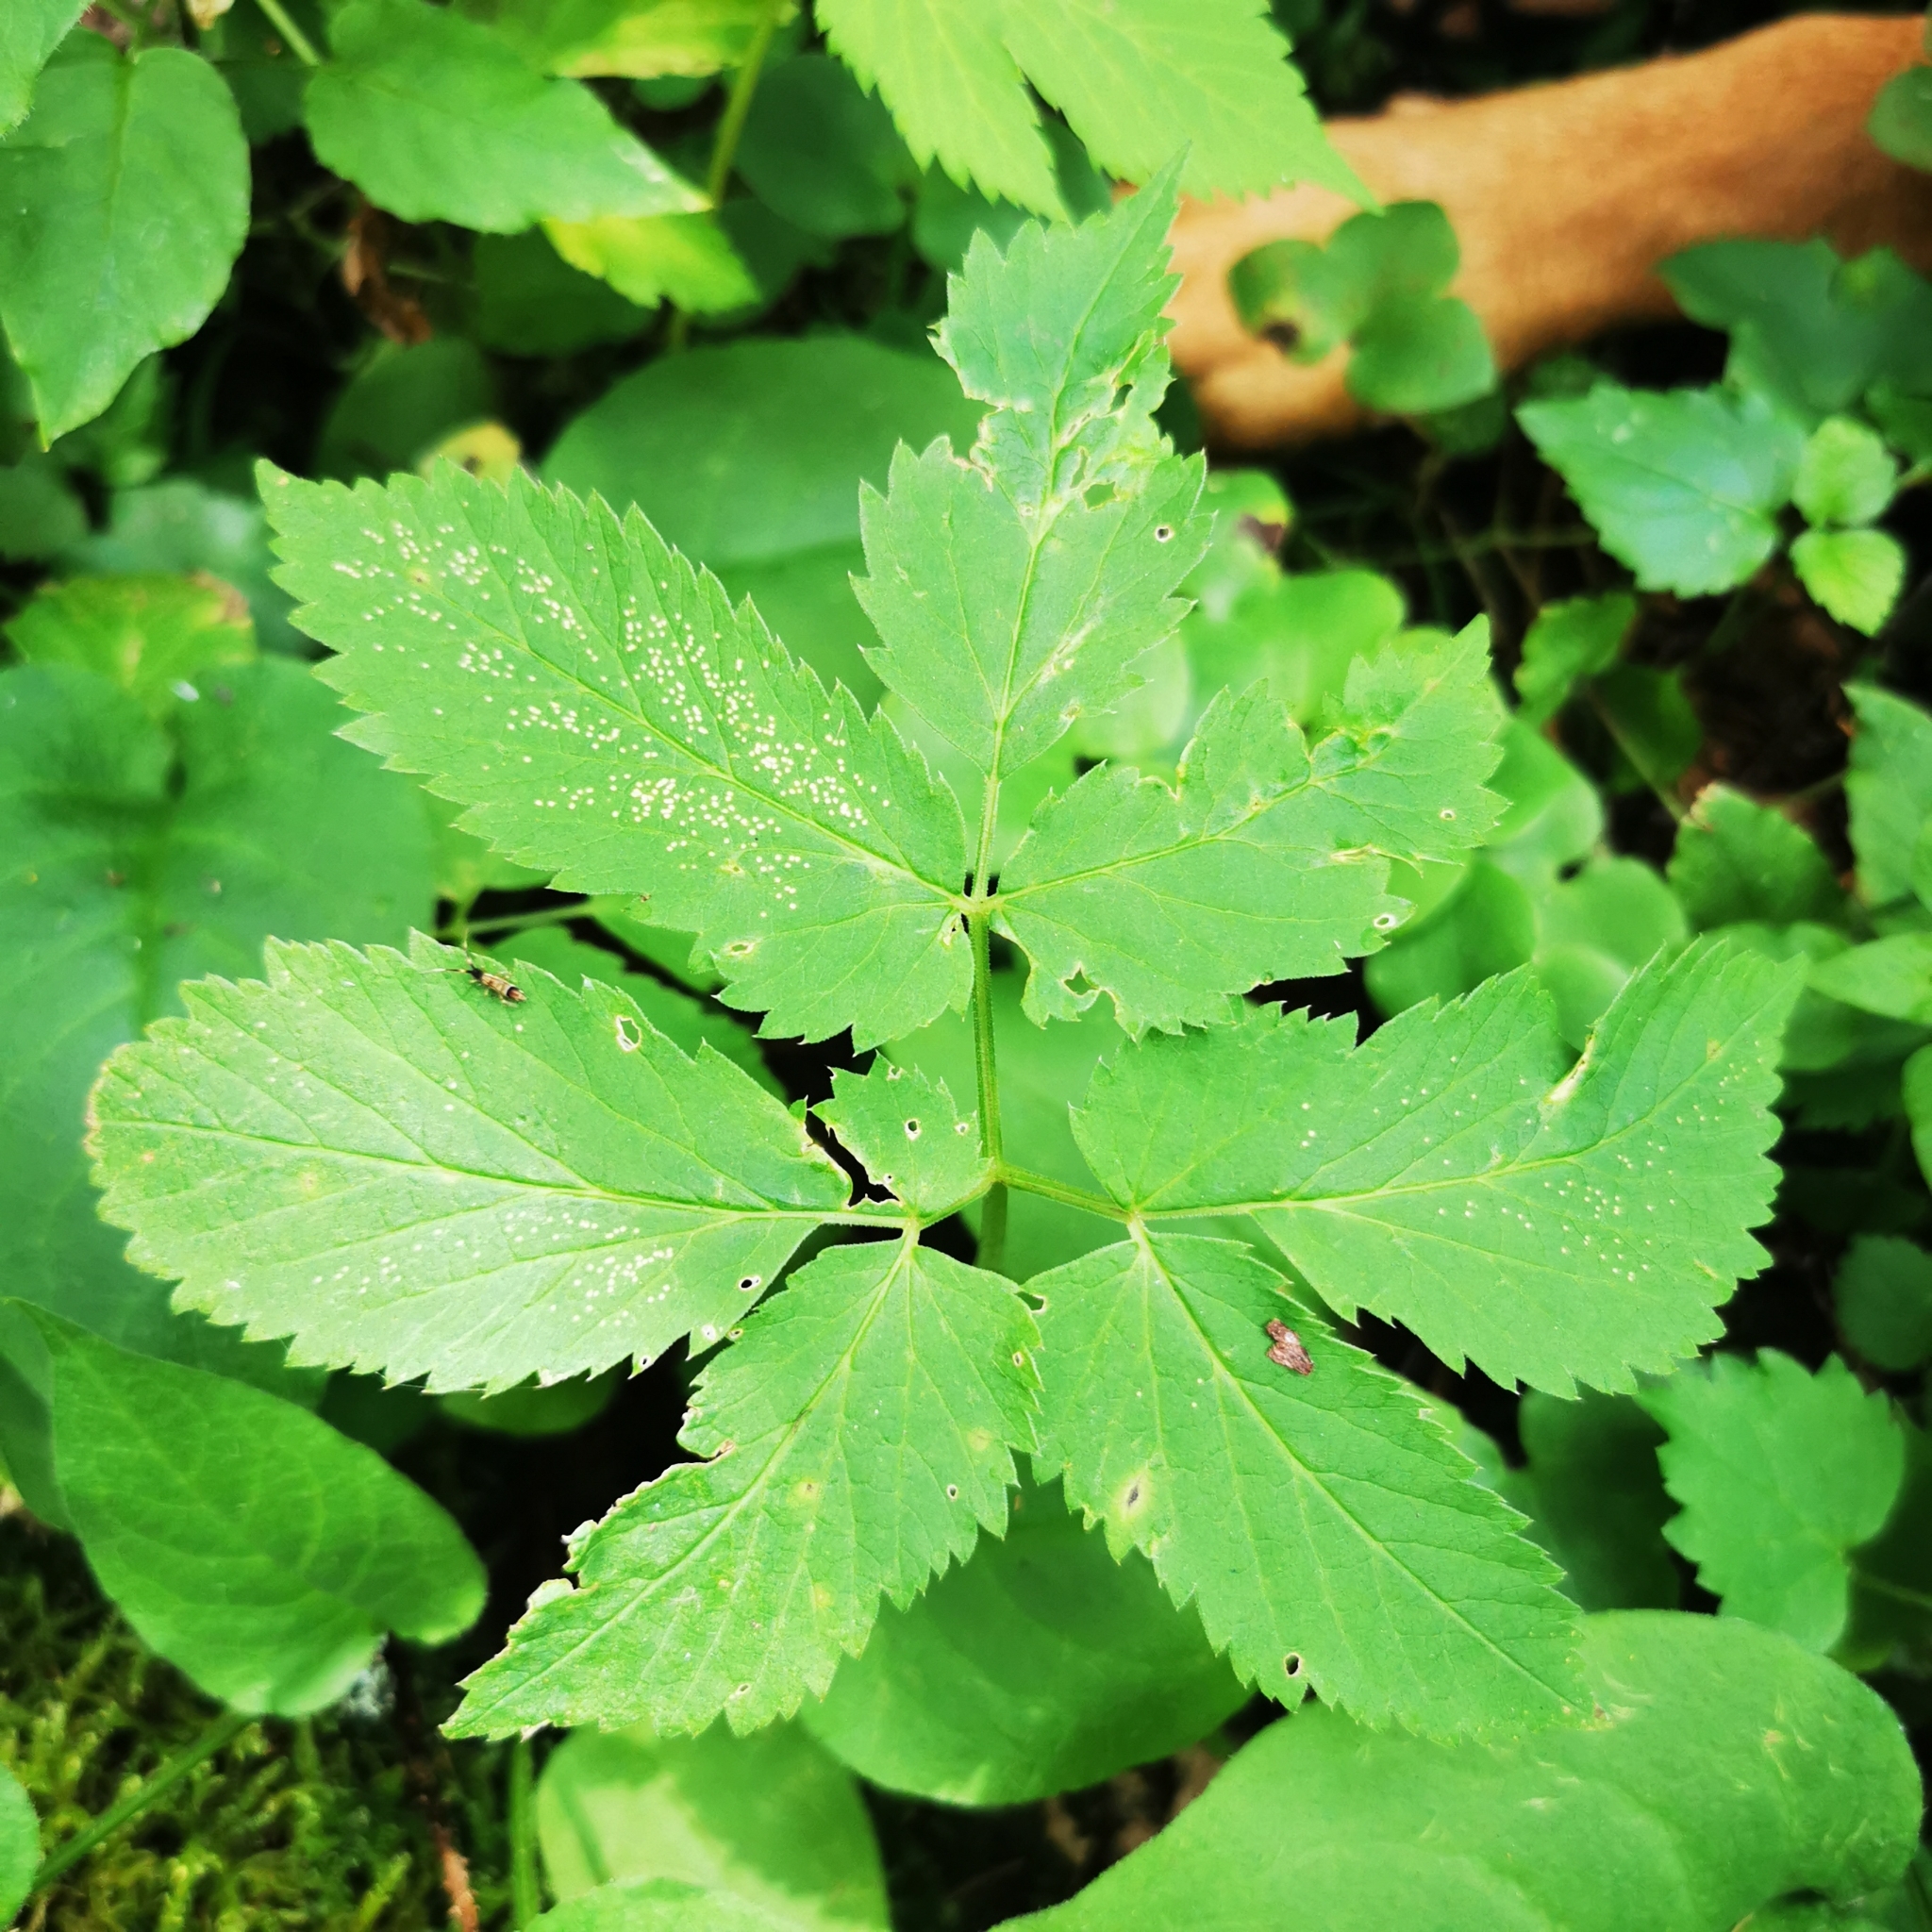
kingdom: Plantae
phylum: Tracheophyta
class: Magnoliopsida
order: Apiales
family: Apiaceae
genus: Aegopodium
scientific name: Aegopodium podagraria
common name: Ground-elder
